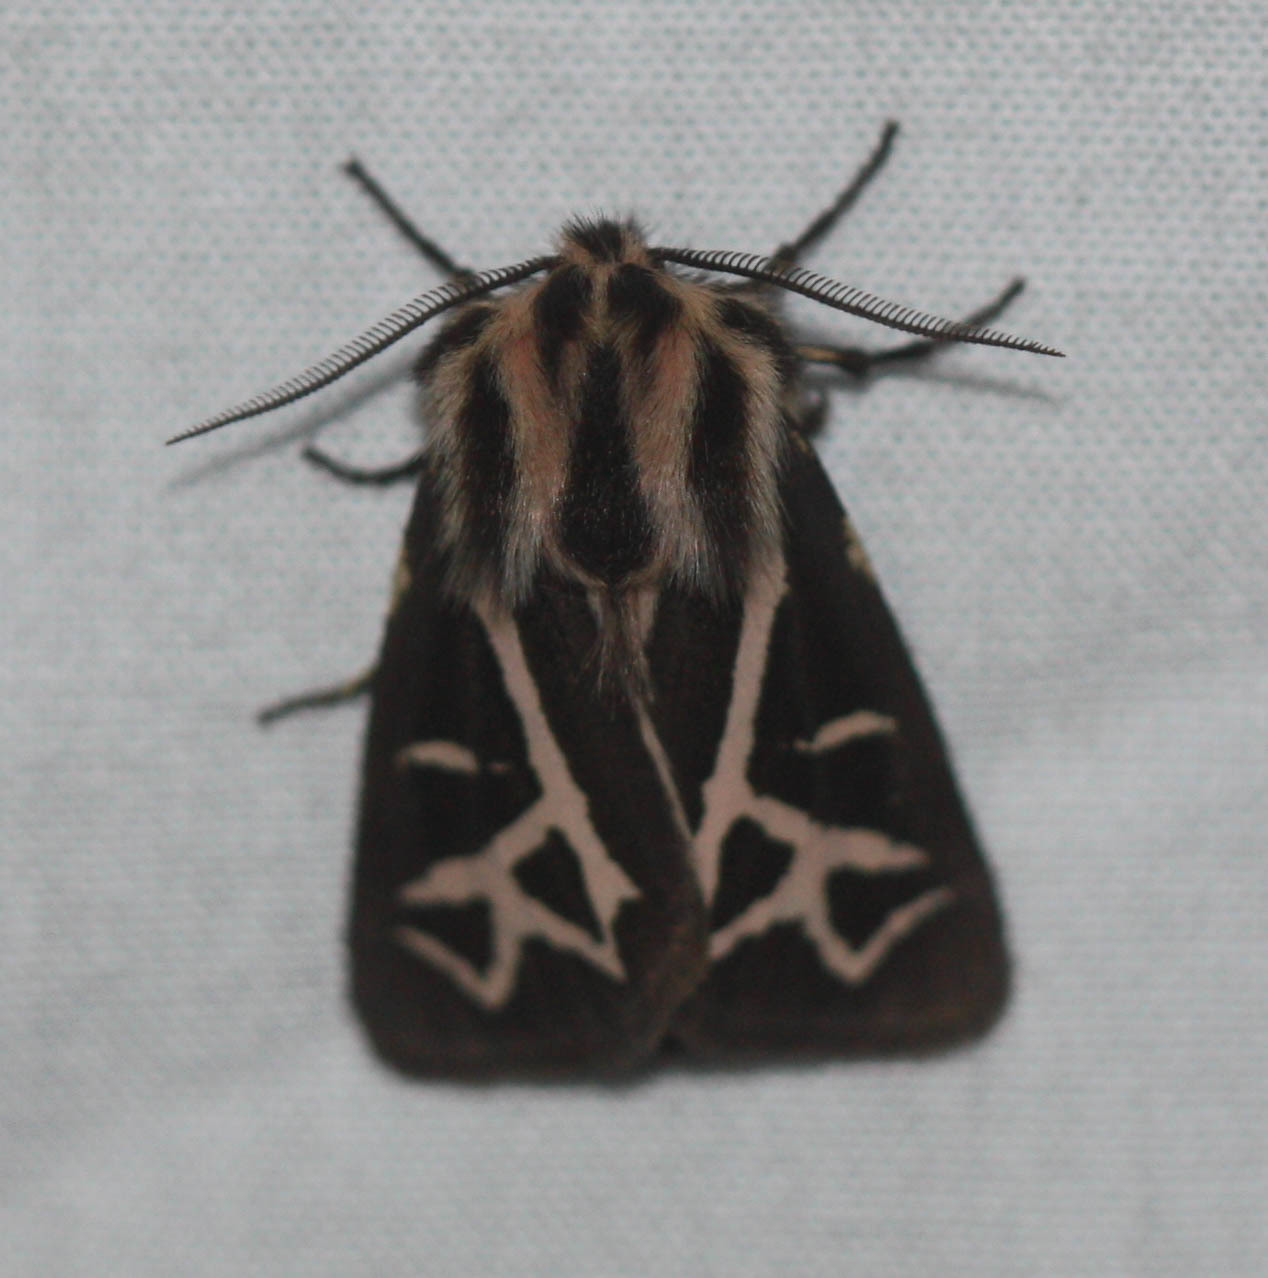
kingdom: Animalia
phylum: Arthropoda
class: Insecta
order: Lepidoptera
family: Erebidae
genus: Apantesis
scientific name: Apantesis
